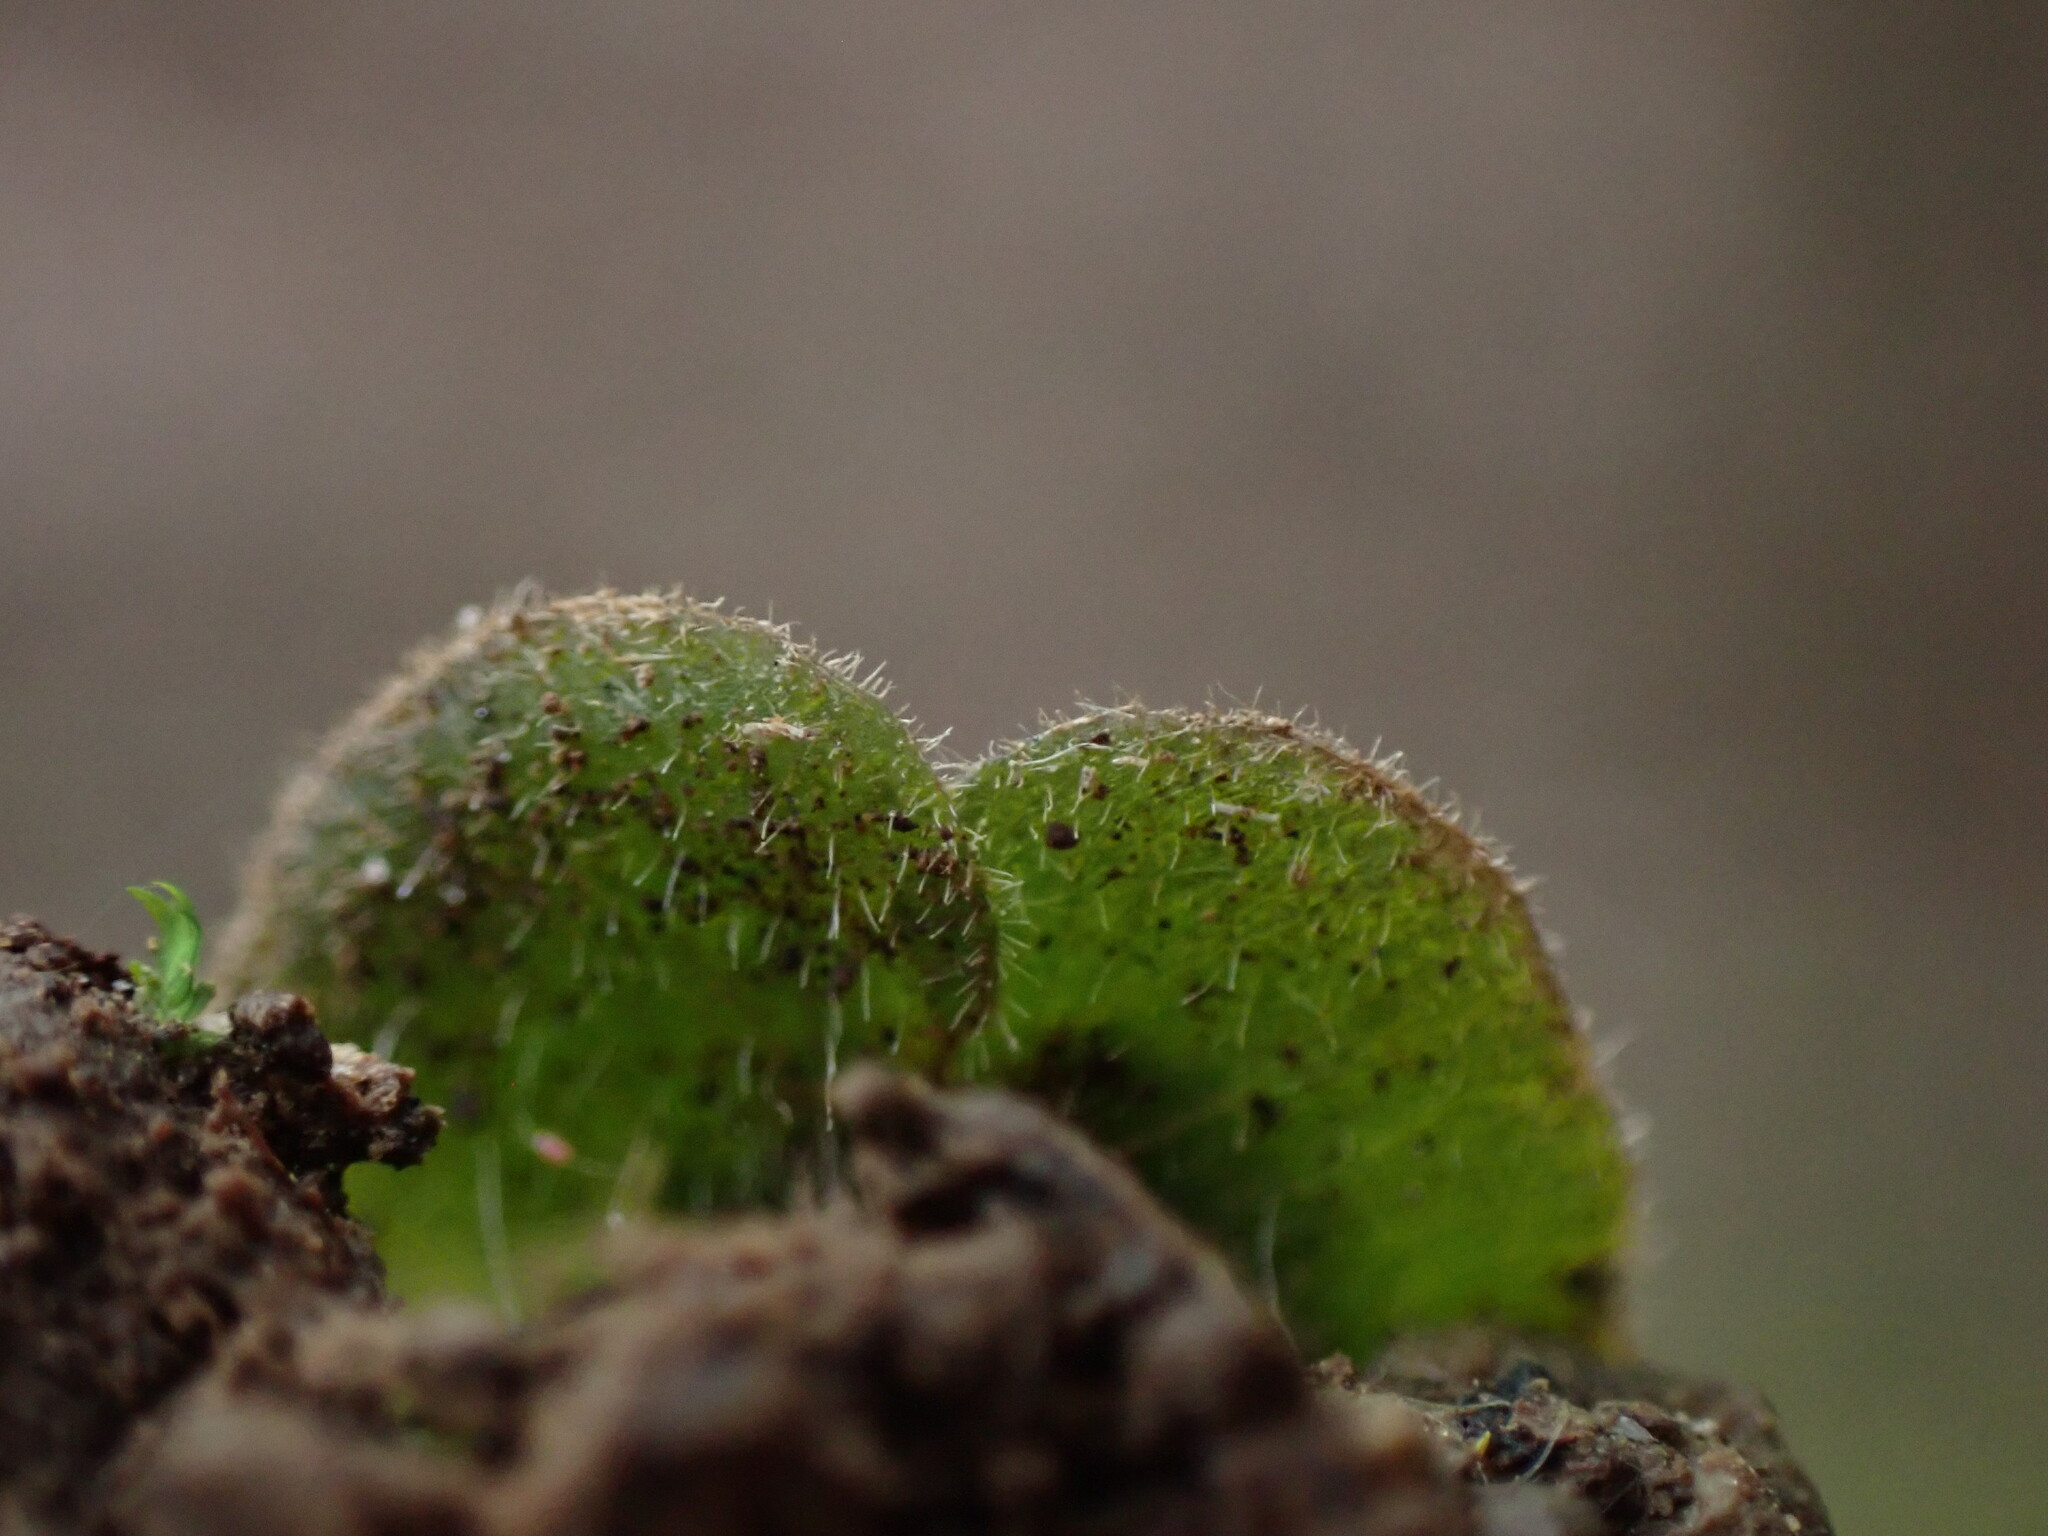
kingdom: Plantae
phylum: Marchantiophyta
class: Marchantiopsida
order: Marchantiales
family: Dumortieraceae
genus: Dumortiera
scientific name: Dumortiera hirsuta
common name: Dumortier's liverwort
